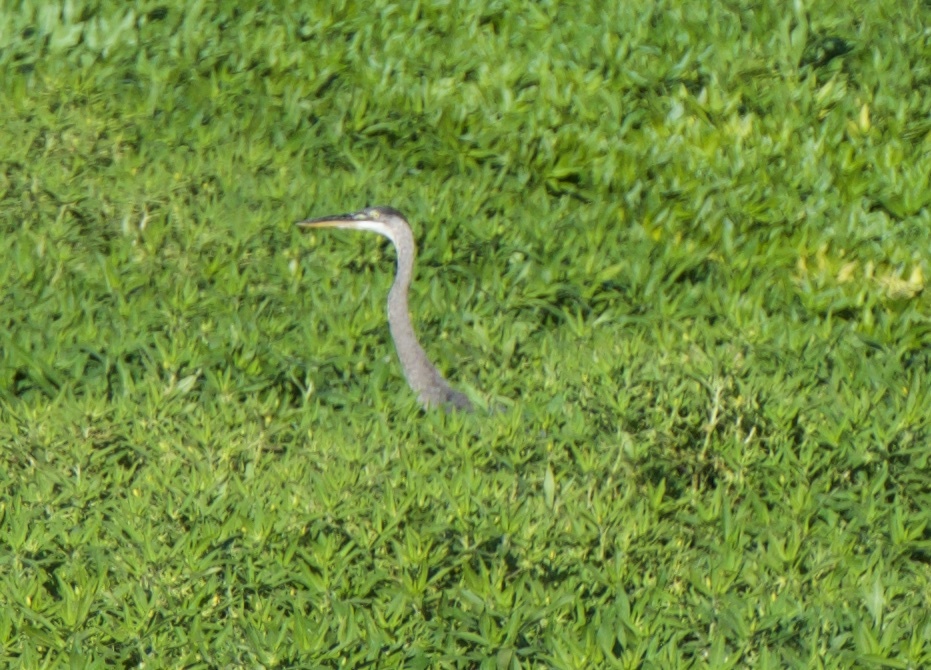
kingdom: Animalia
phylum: Chordata
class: Aves
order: Pelecaniformes
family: Ardeidae
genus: Ardea
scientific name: Ardea herodias
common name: Great blue heron
